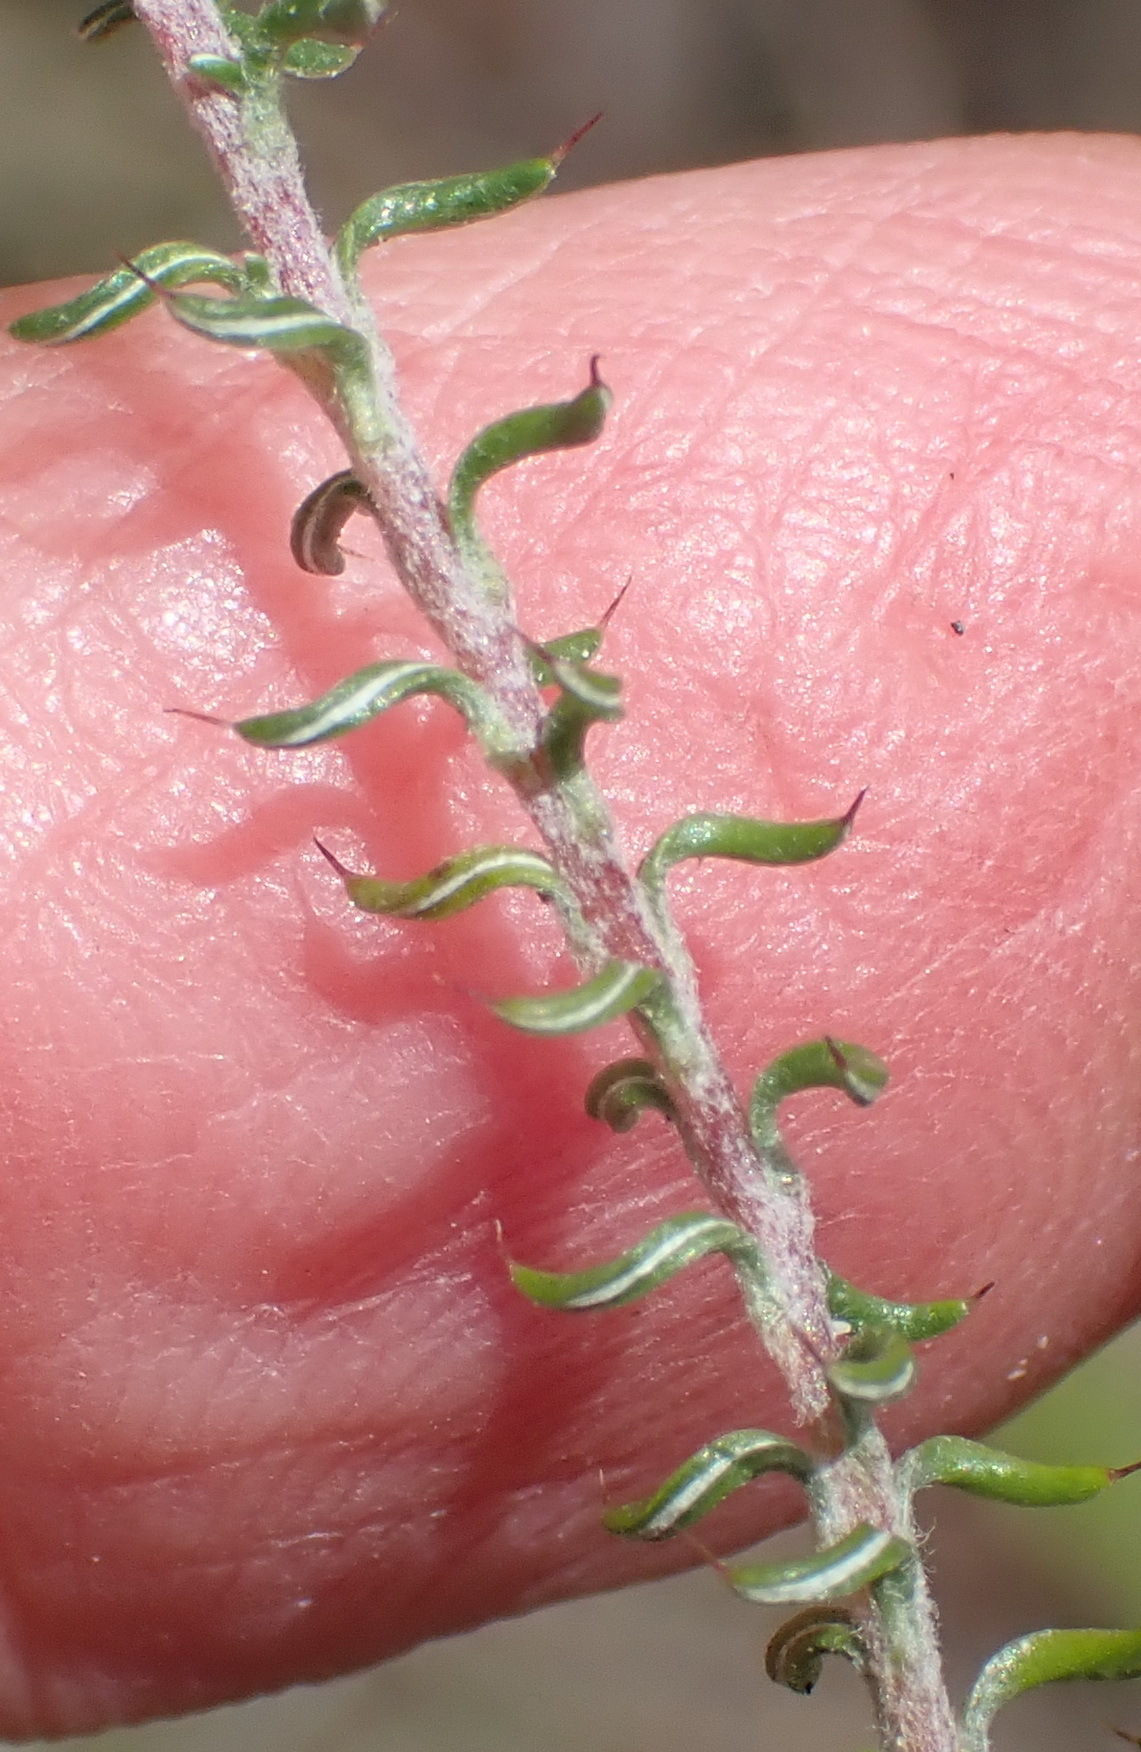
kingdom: Plantae
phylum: Tracheophyta
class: Magnoliopsida
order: Asterales
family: Asteraceae
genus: Disparago
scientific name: Disparago tortilis
